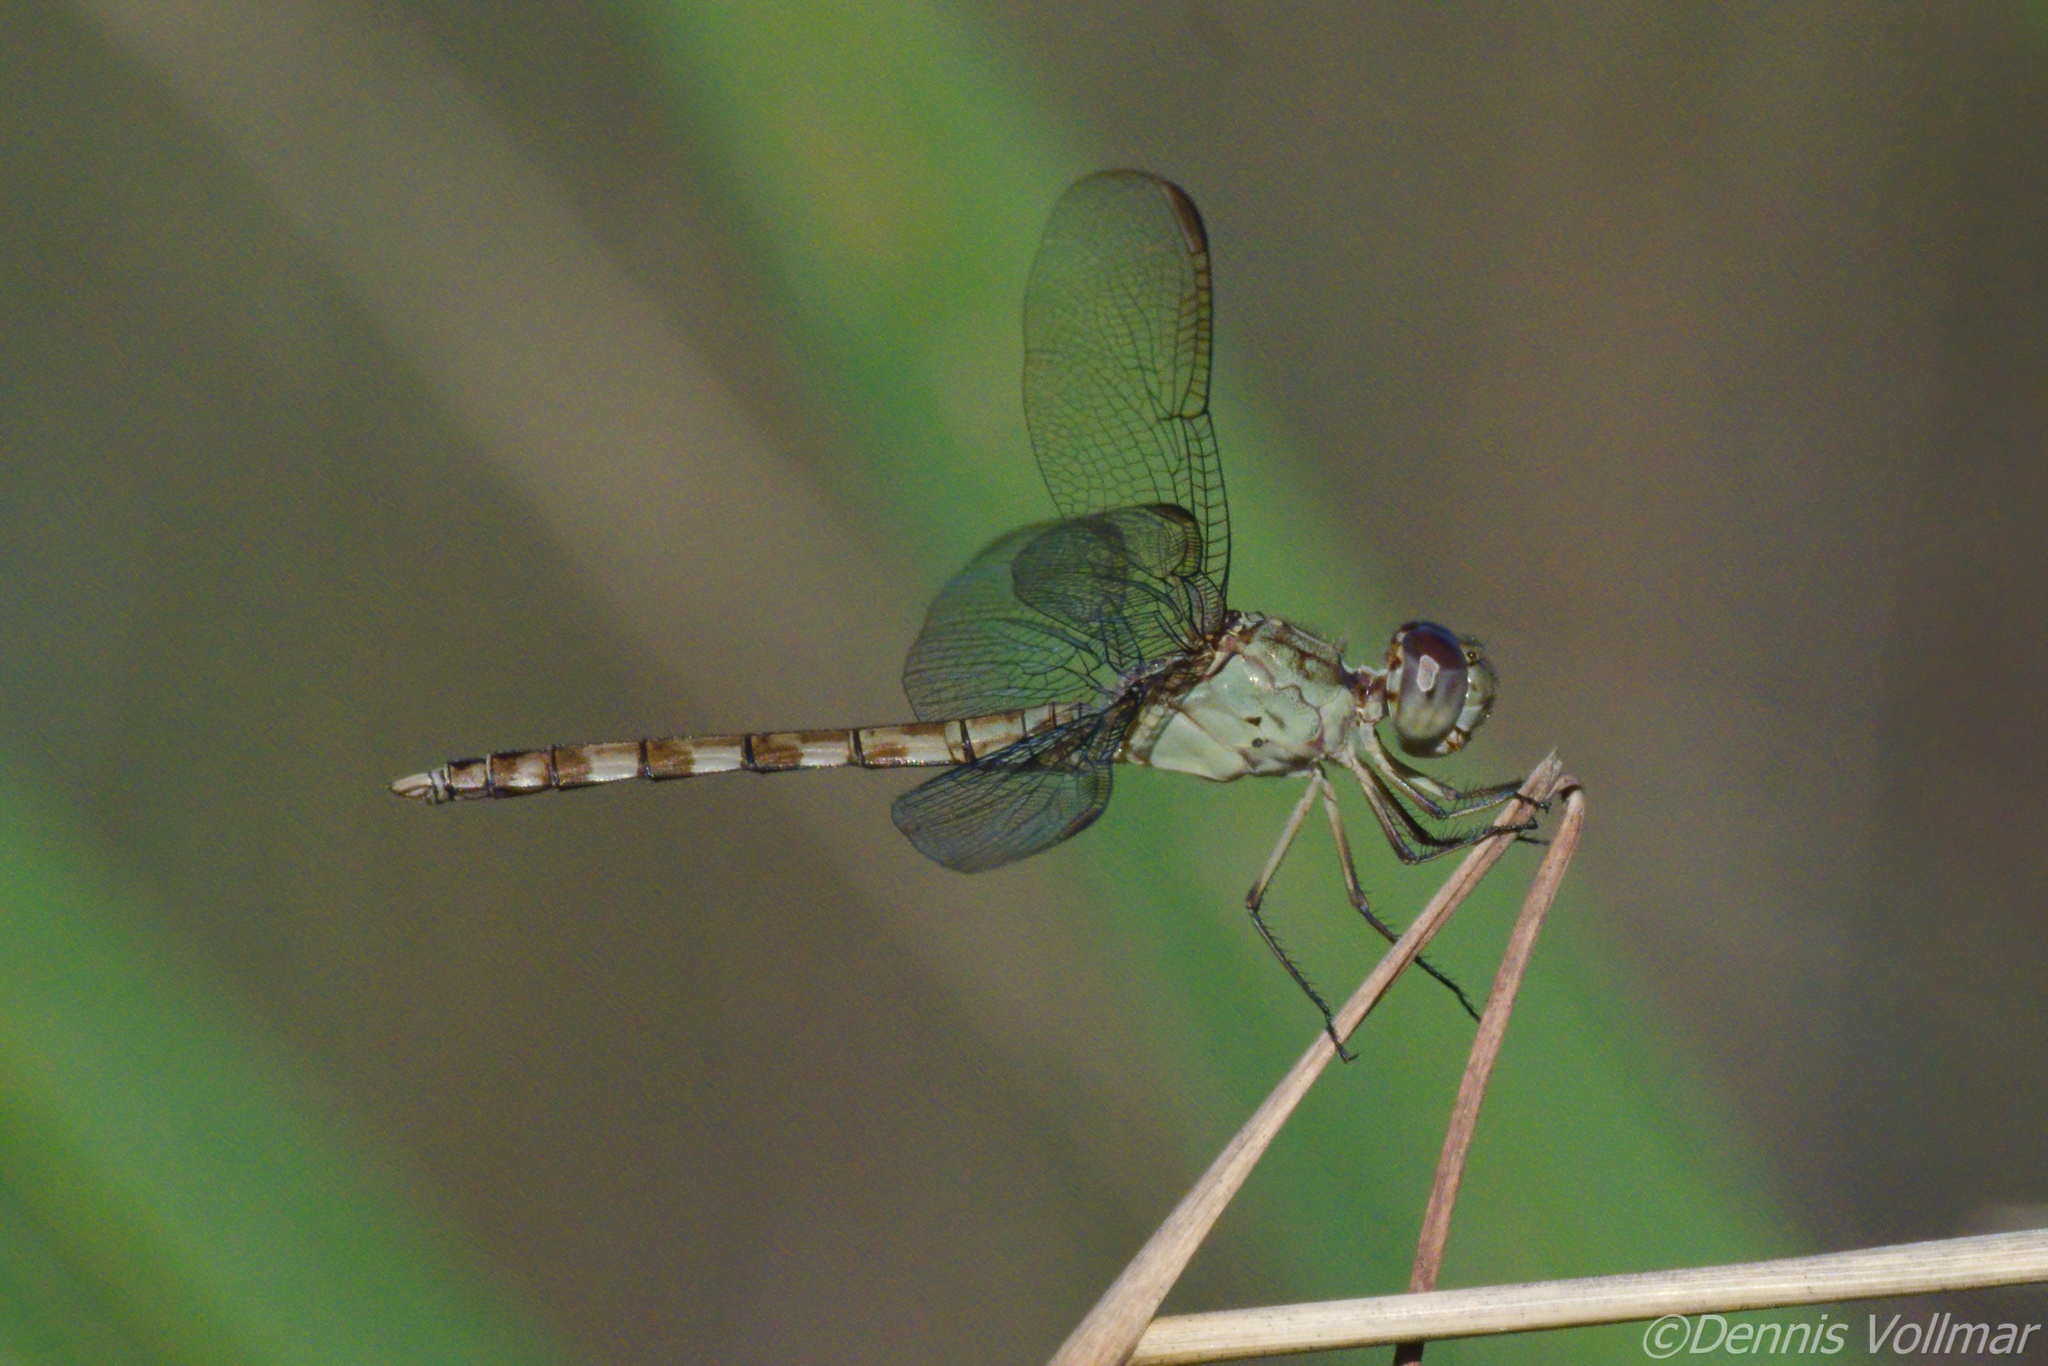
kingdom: Animalia
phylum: Arthropoda
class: Insecta
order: Odonata
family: Libellulidae
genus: Erythrodiplax
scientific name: Erythrodiplax umbrata
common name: Band-winged dragonlet
